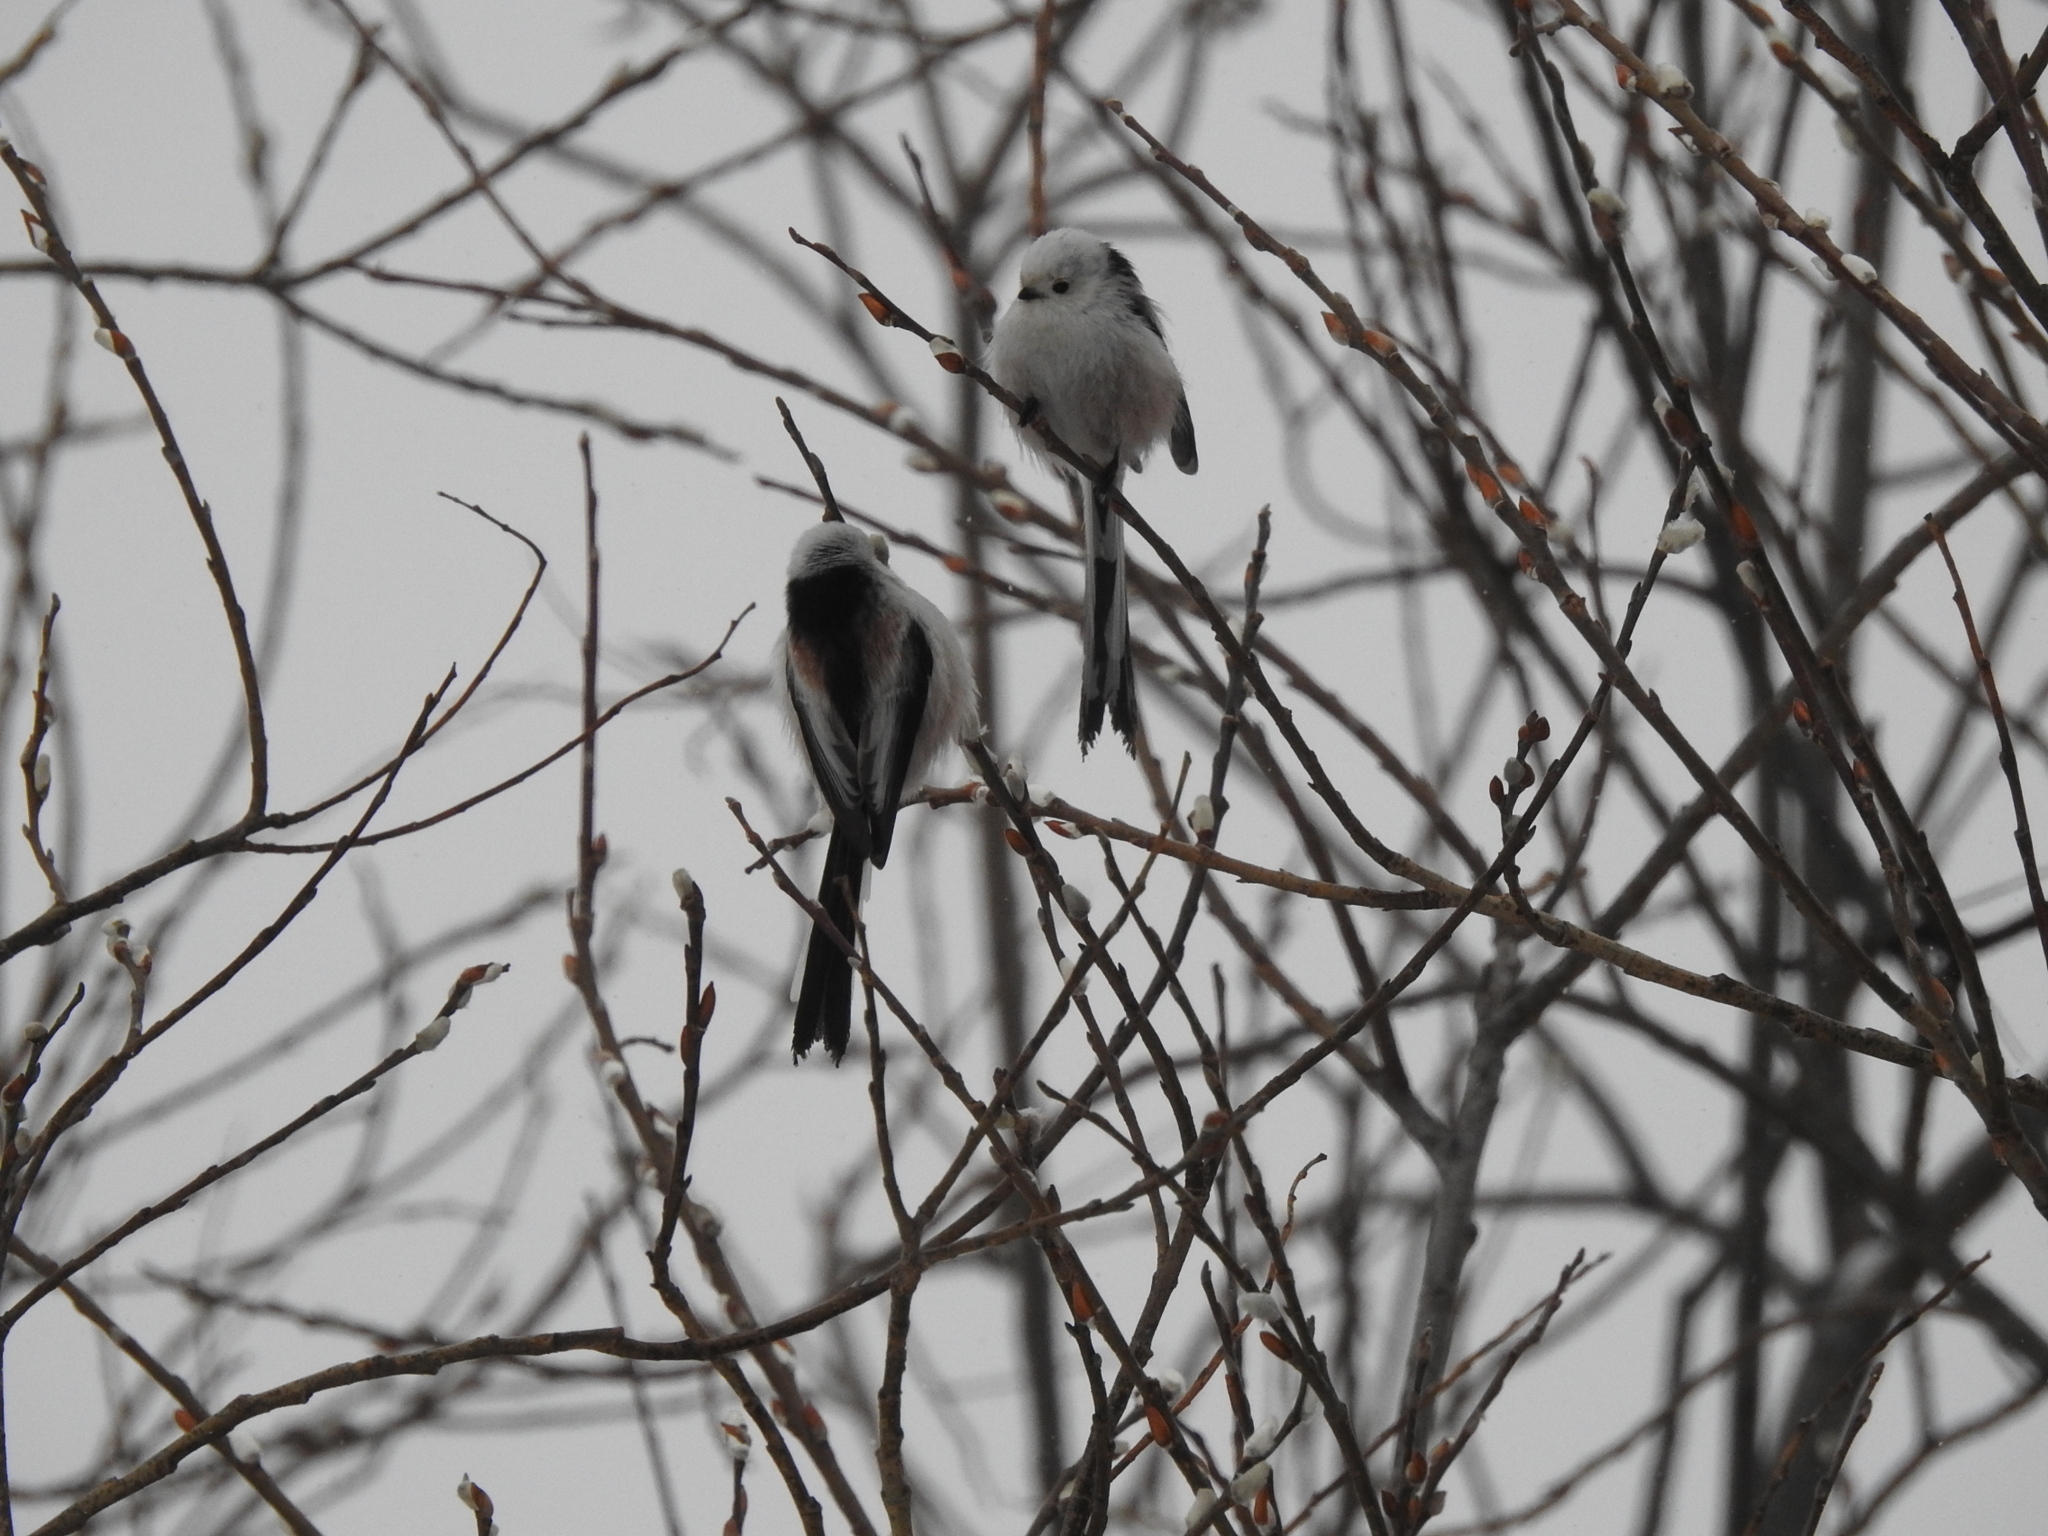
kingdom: Animalia
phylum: Chordata
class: Aves
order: Passeriformes
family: Aegithalidae
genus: Aegithalos
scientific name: Aegithalos caudatus
